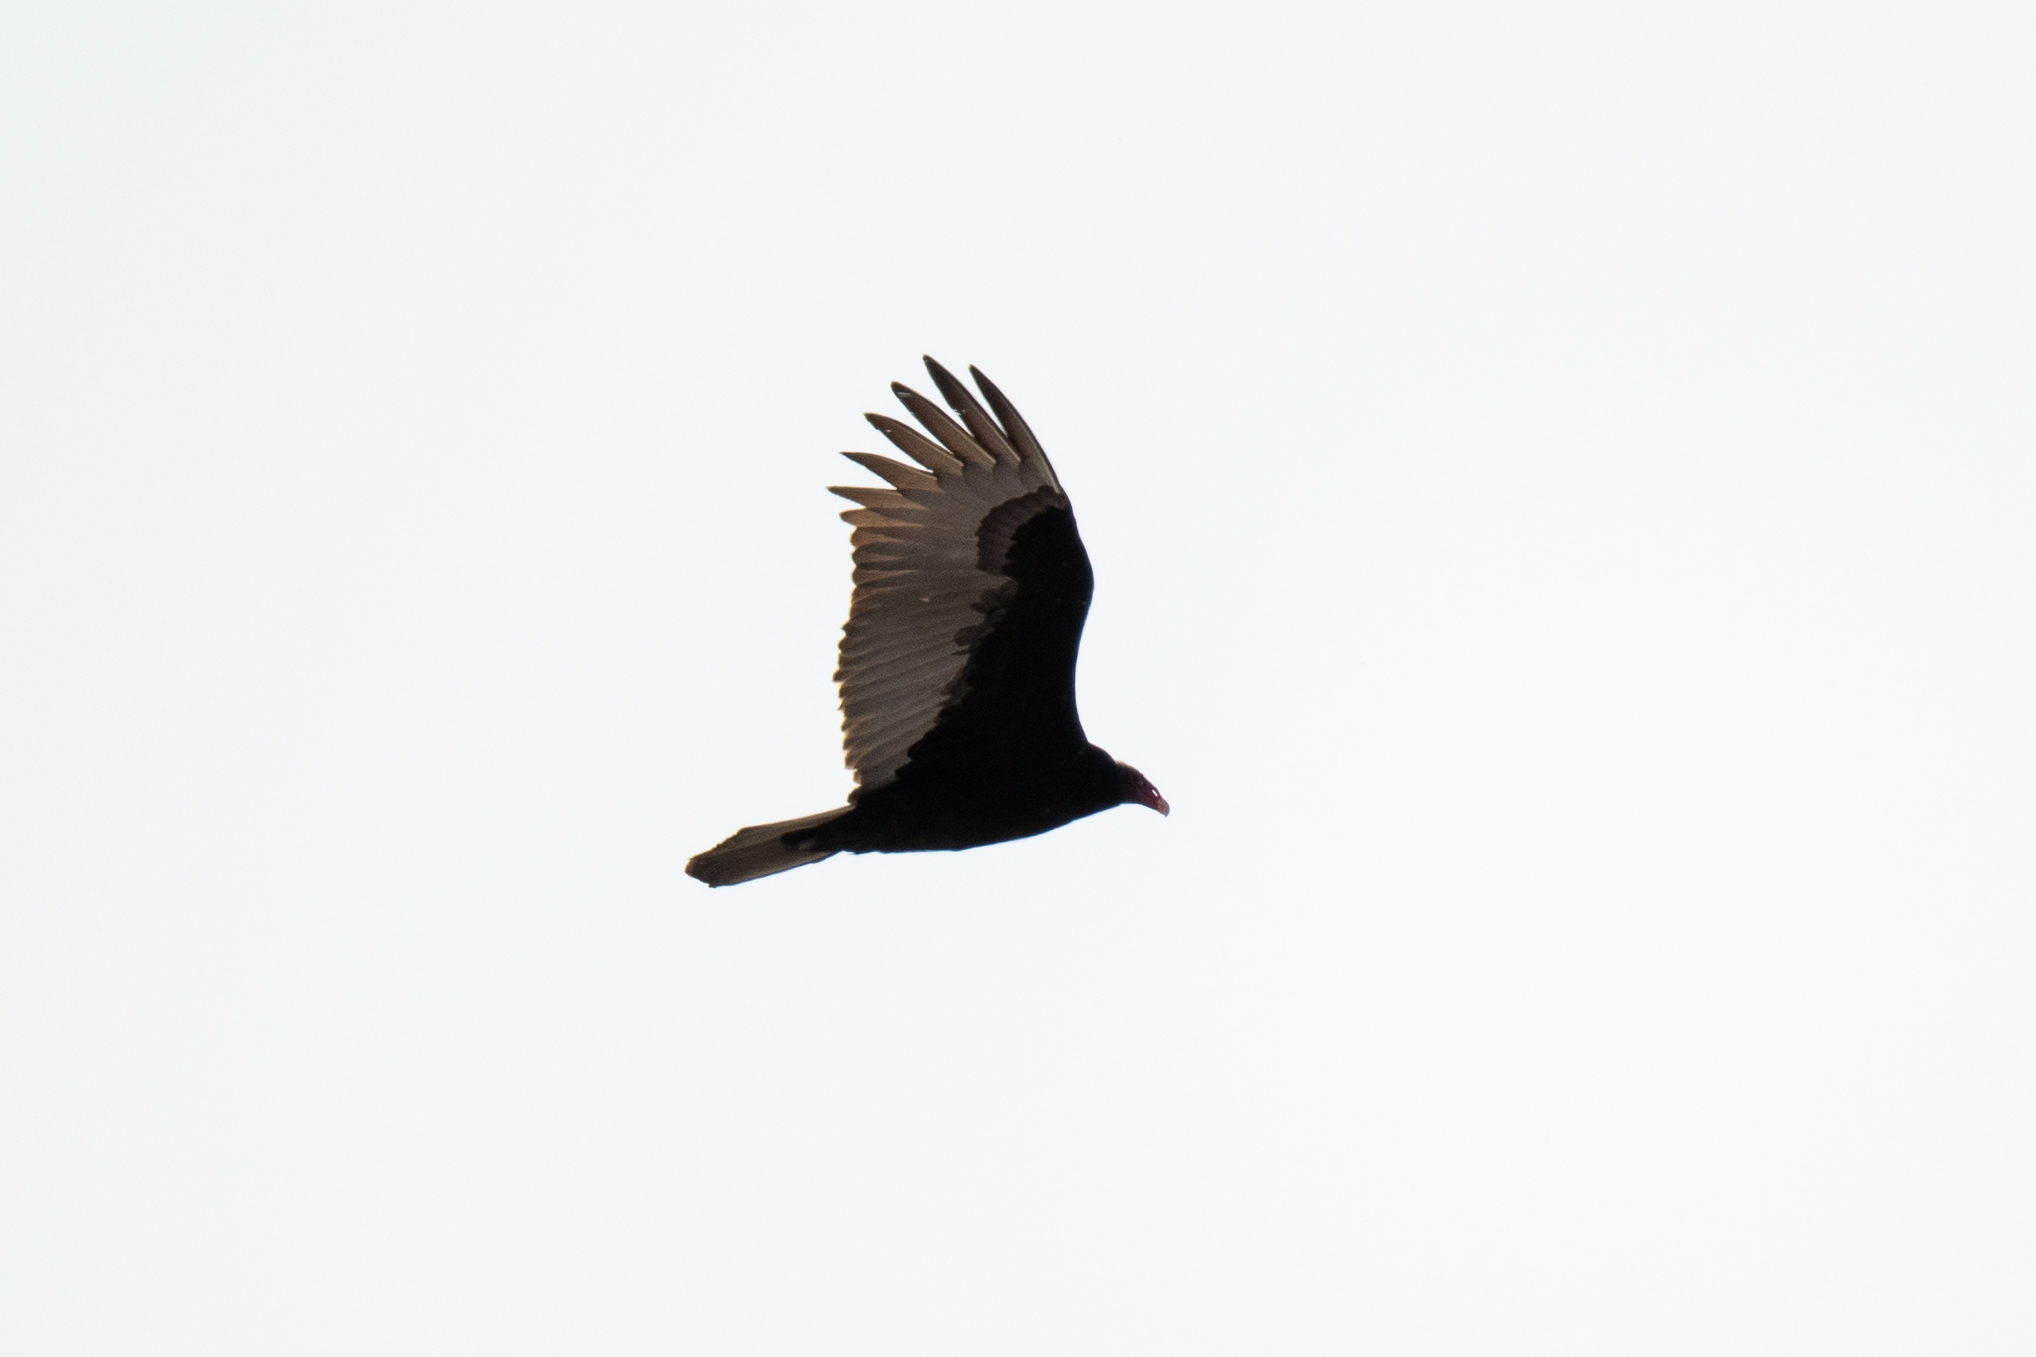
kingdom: Animalia
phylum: Chordata
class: Aves
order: Accipitriformes
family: Cathartidae
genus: Cathartes
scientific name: Cathartes aura
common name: Turkey vulture
